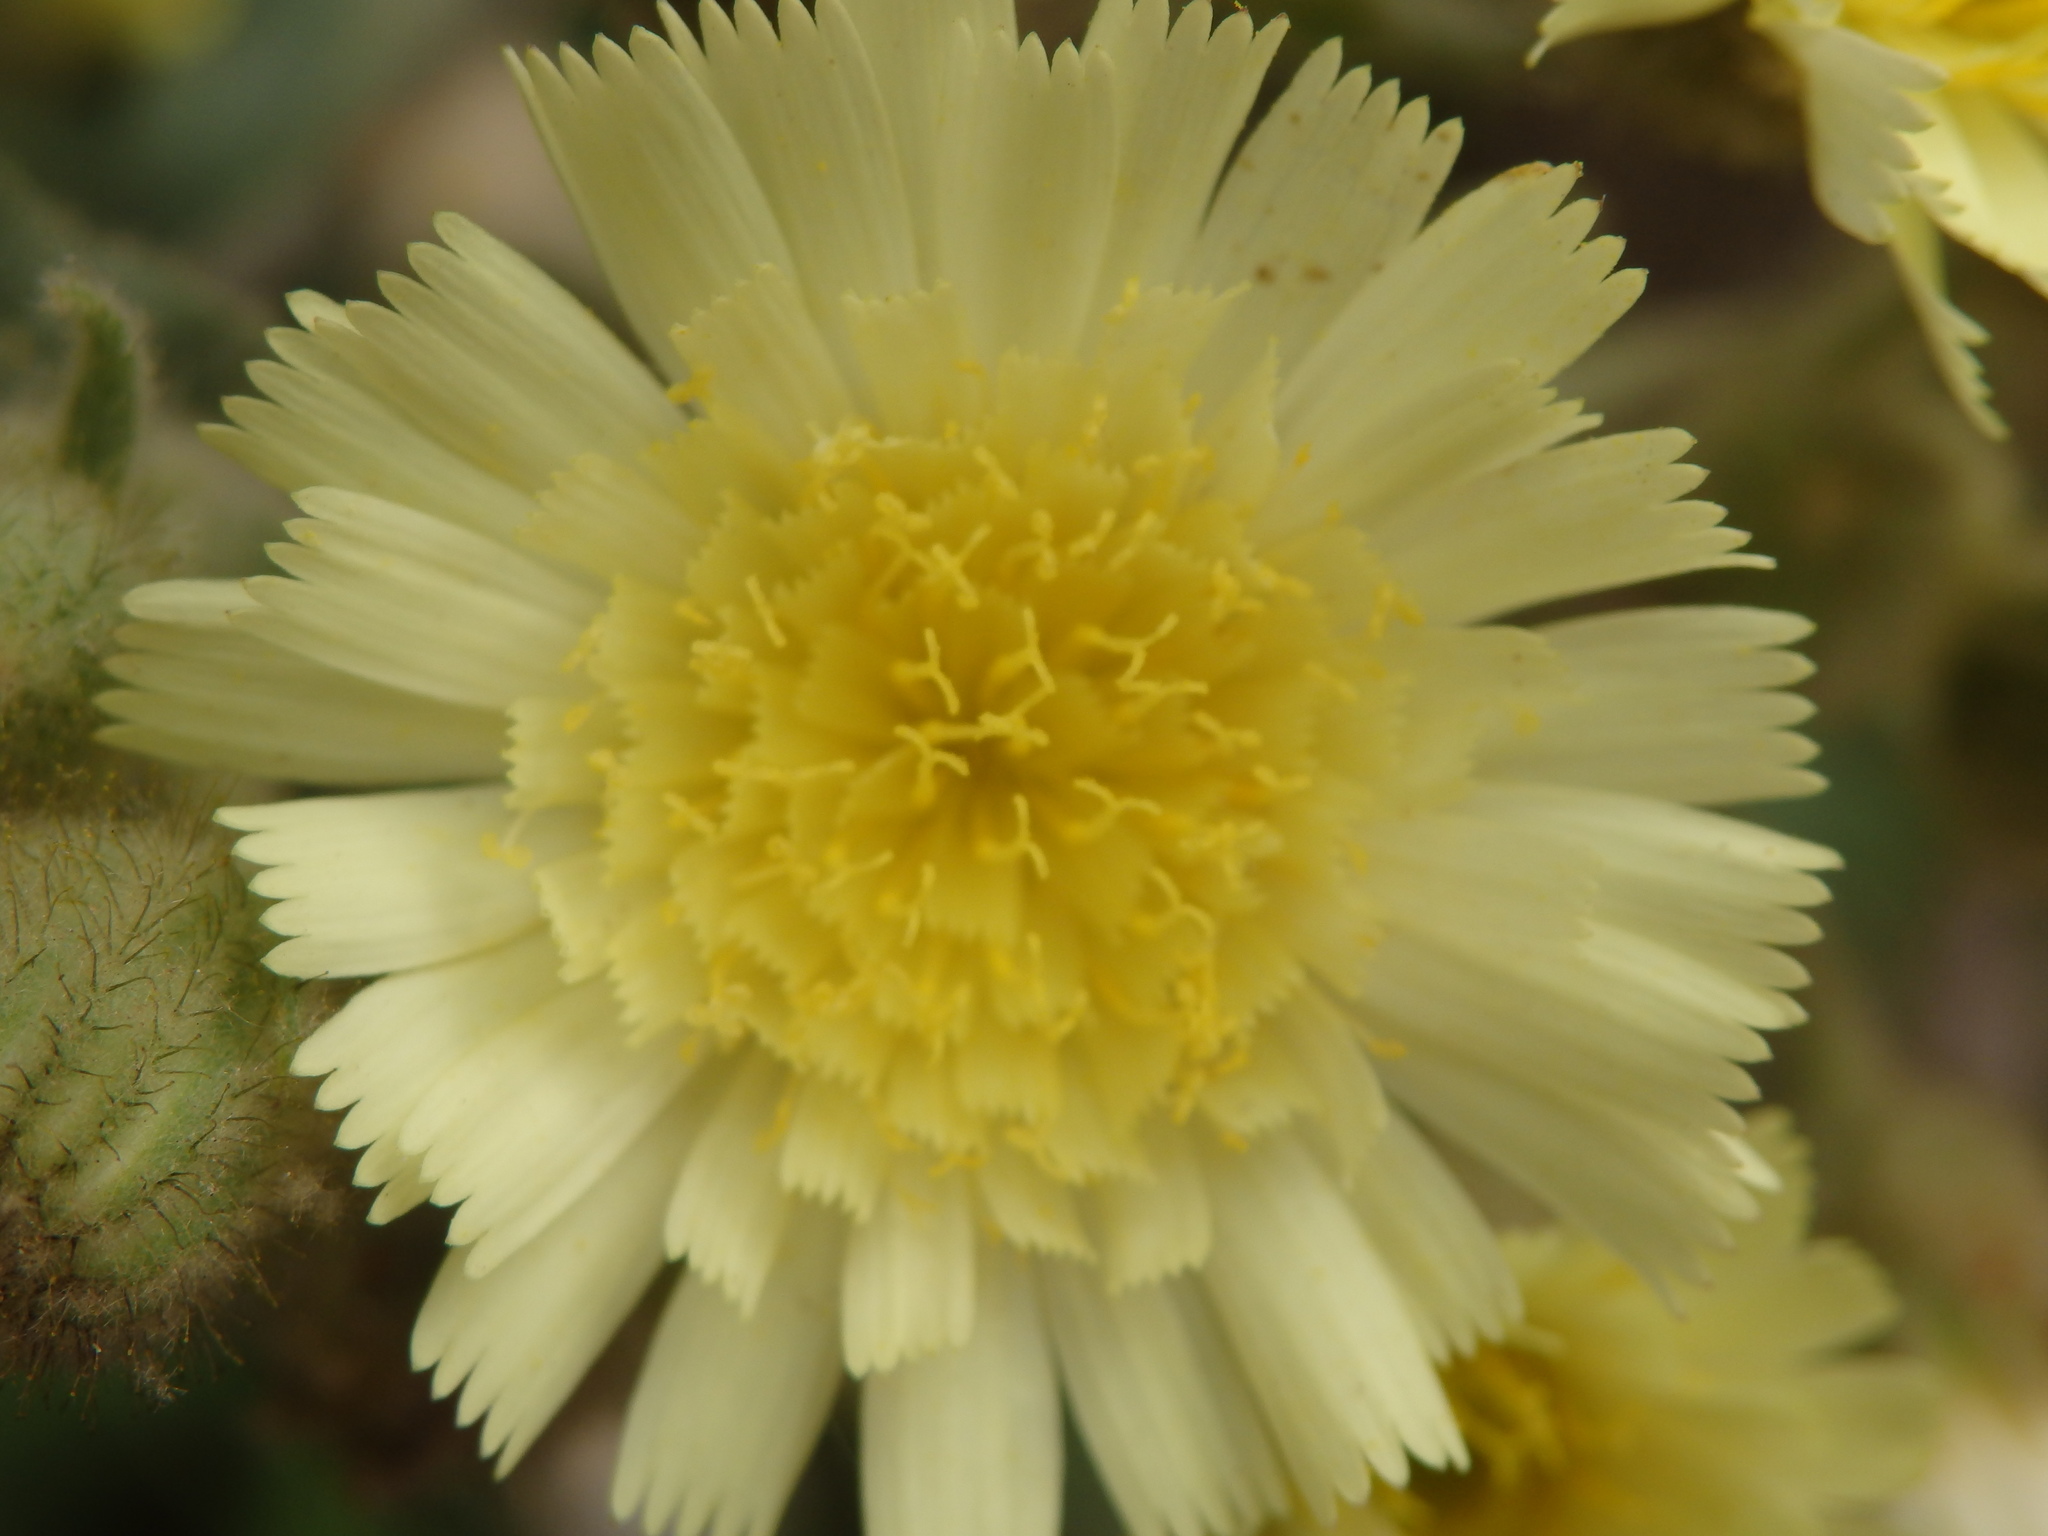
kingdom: Plantae
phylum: Tracheophyta
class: Magnoliopsida
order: Asterales
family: Asteraceae
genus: Andryala
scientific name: Andryala integrifolia
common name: Common andryala
